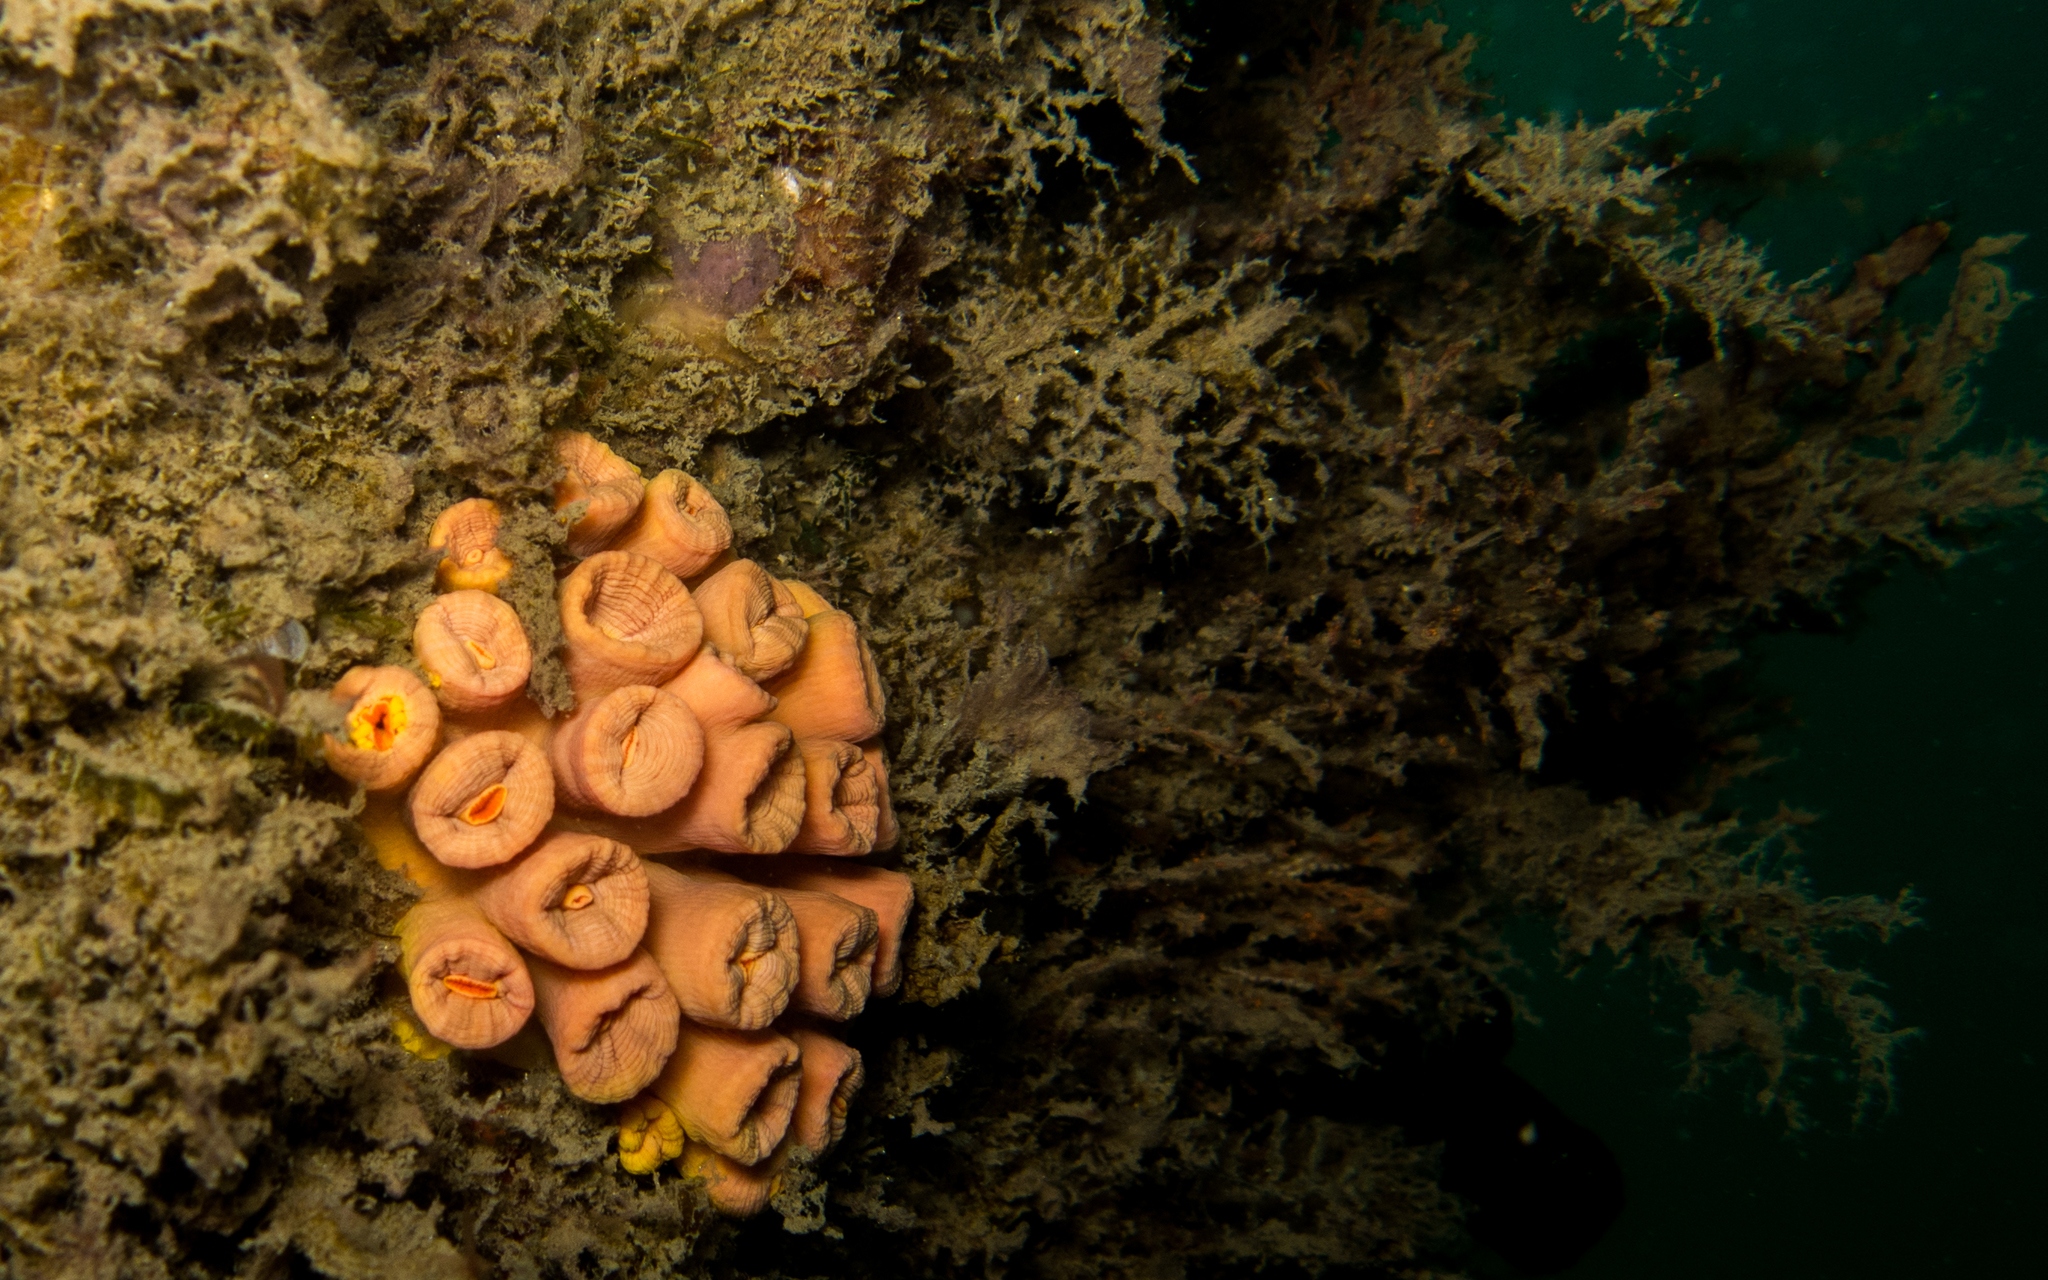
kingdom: Animalia
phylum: Cnidaria
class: Anthozoa
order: Scleractinia
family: Dendrophylliidae
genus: Tubastraea
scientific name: Tubastraea coccinea
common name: Orange cup coral
